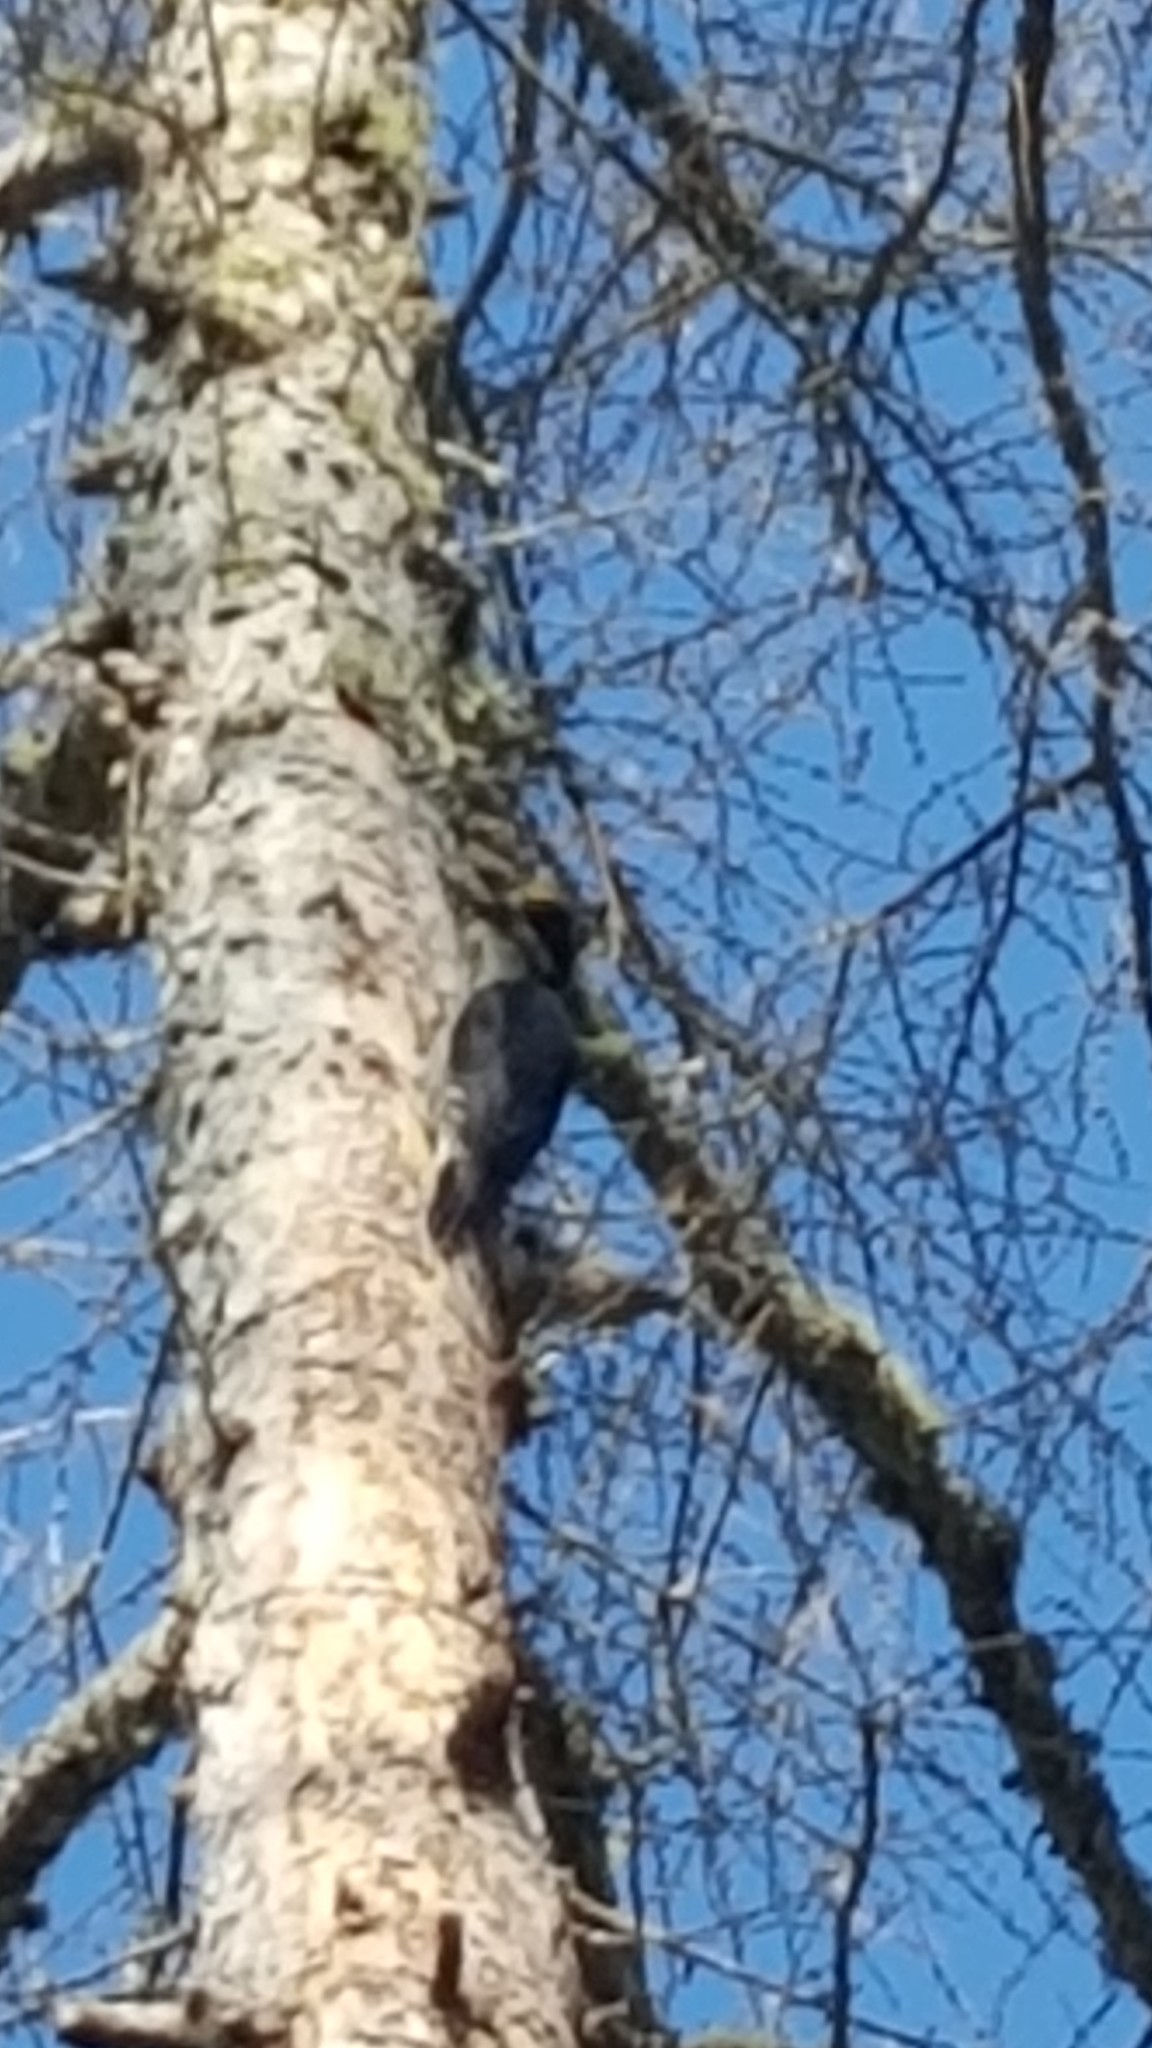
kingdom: Animalia
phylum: Chordata
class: Aves
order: Piciformes
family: Picidae
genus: Picoides
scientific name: Picoides arcticus
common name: Black-backed woodpecker
